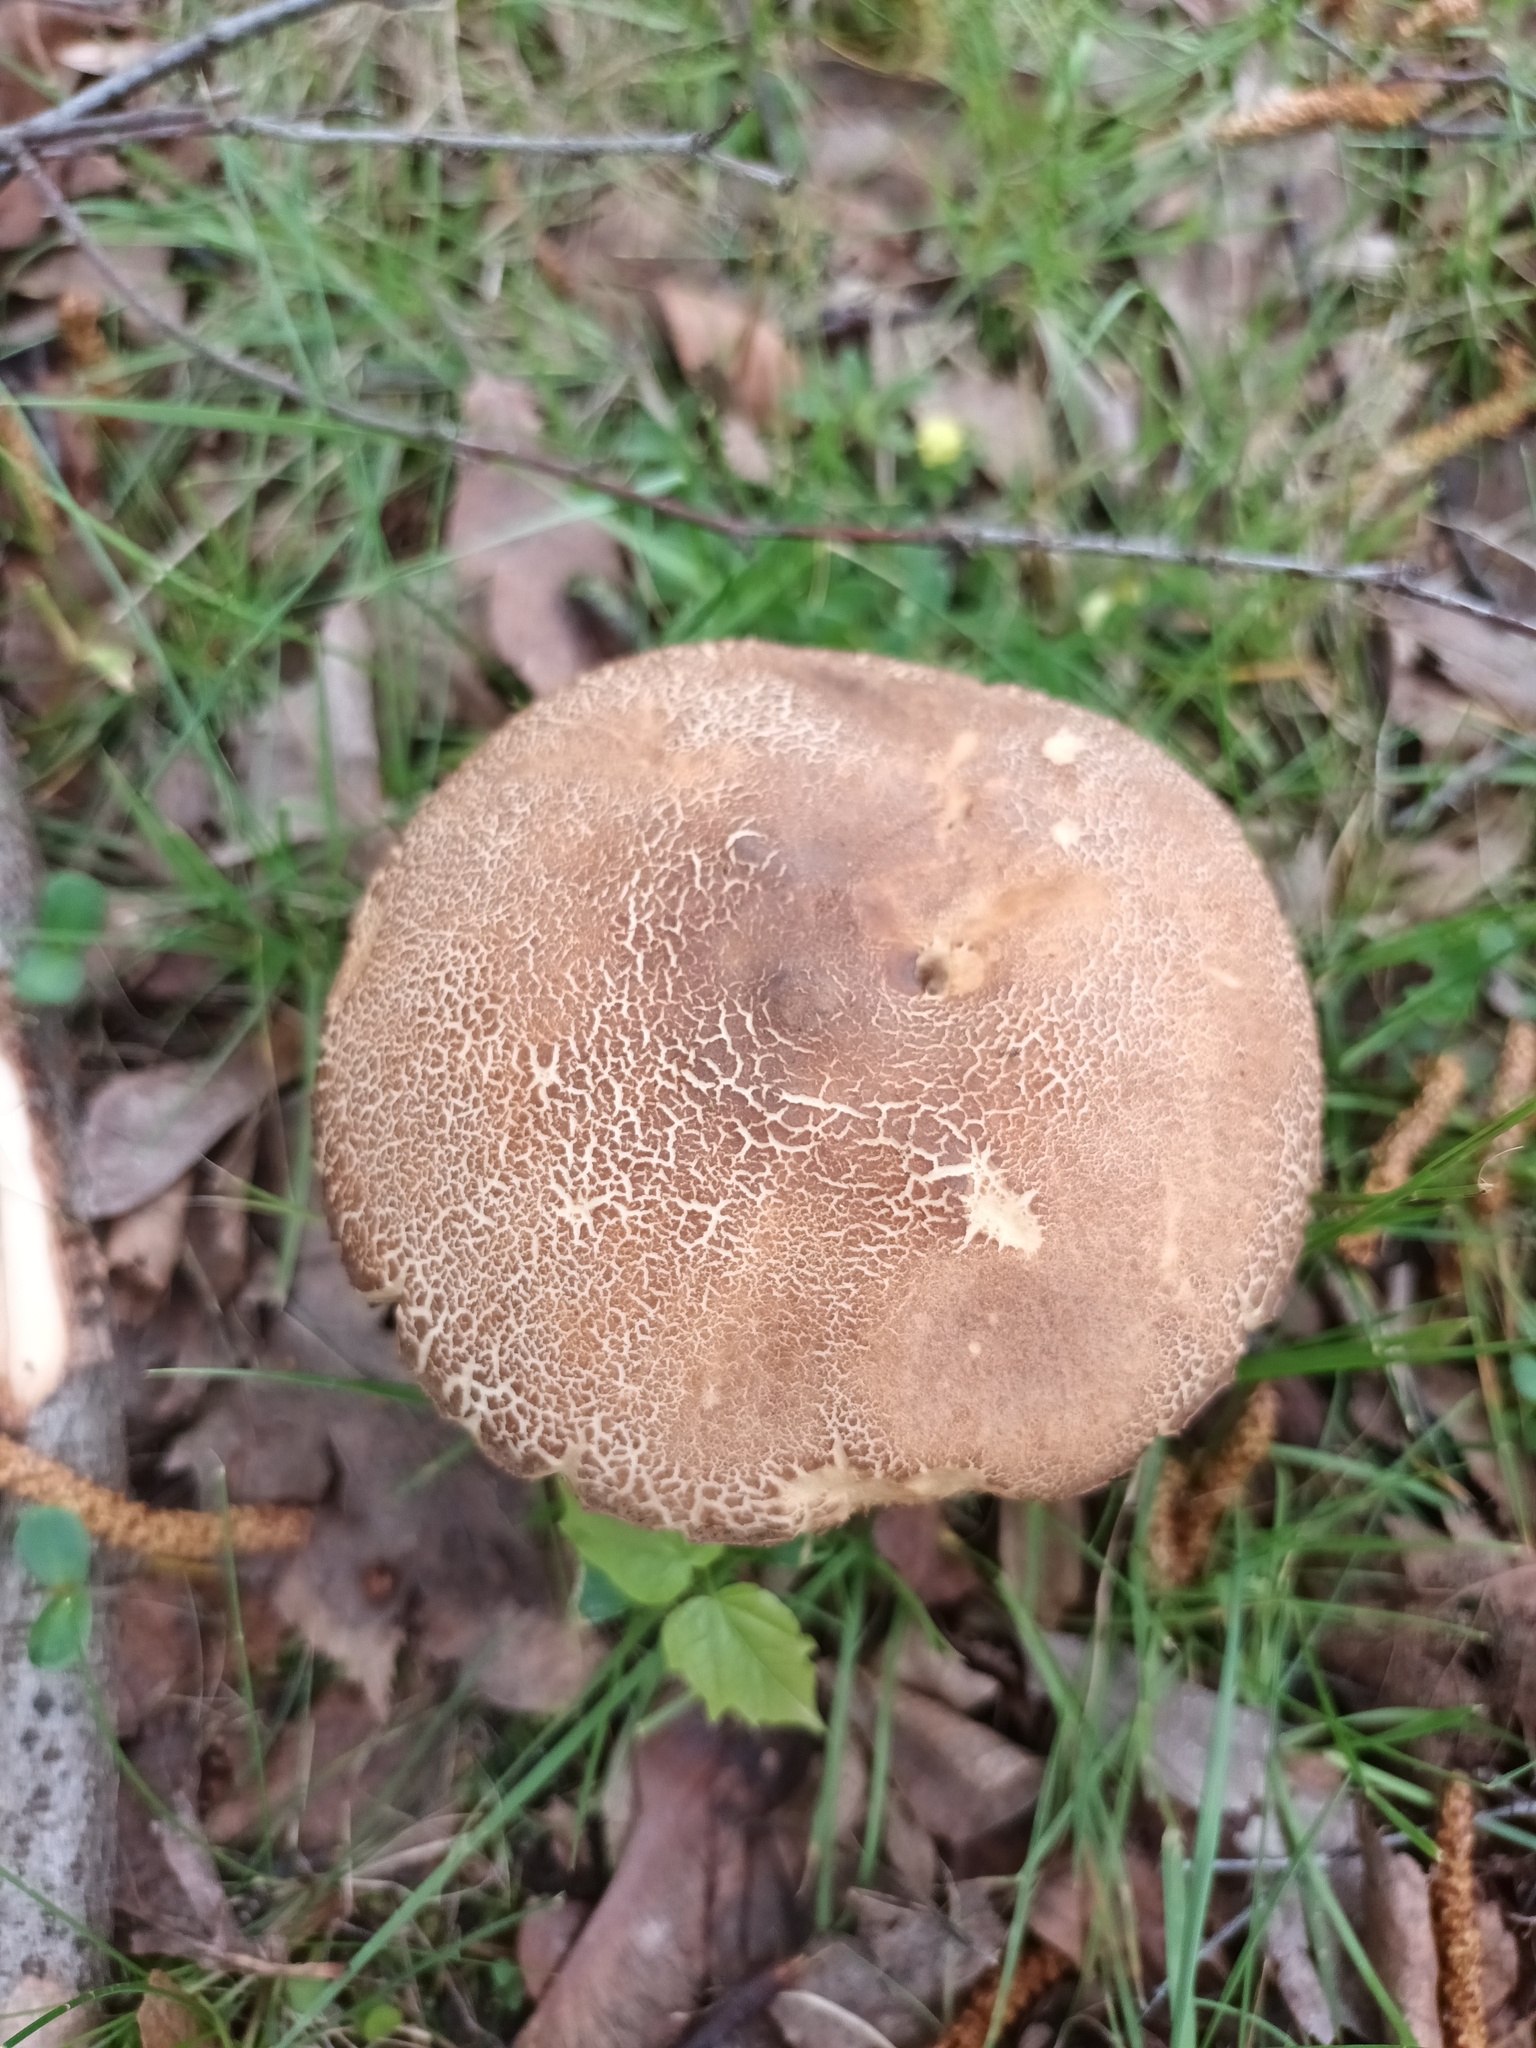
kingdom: Fungi
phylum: Basidiomycota
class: Agaricomycetes
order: Boletales
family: Boletaceae
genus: Leccinum
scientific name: Leccinum scabrum
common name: Blushing bolete
